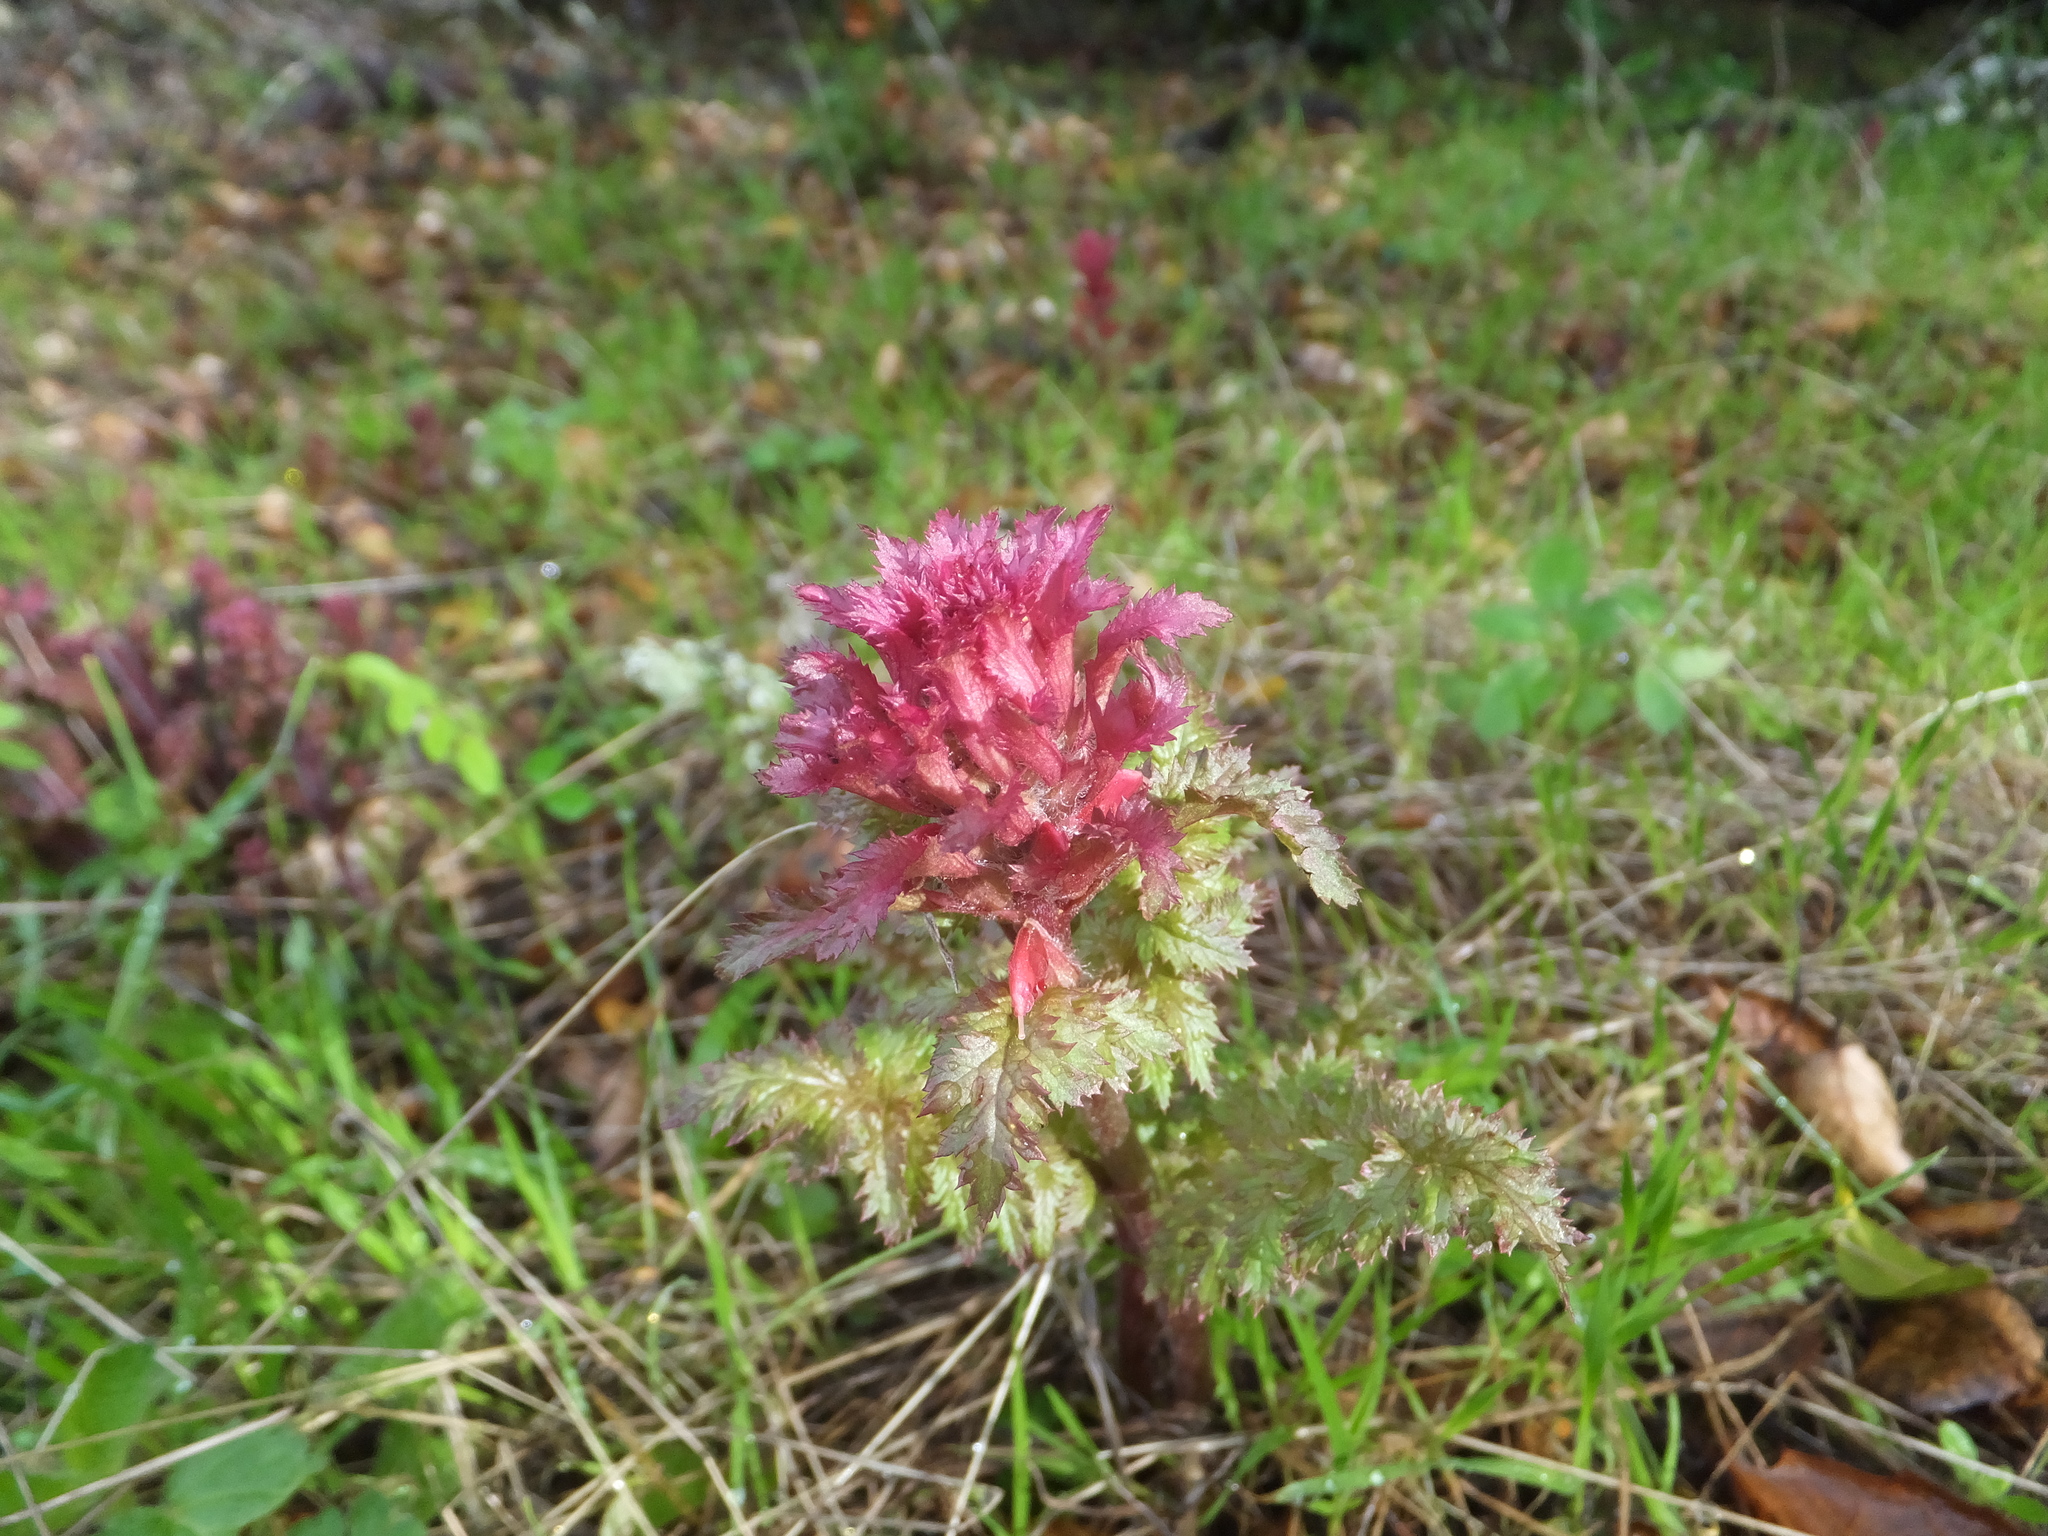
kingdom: Plantae
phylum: Tracheophyta
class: Magnoliopsida
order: Lamiales
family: Orobanchaceae
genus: Pedicularis
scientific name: Pedicularis densiflora
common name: Indian warrior
